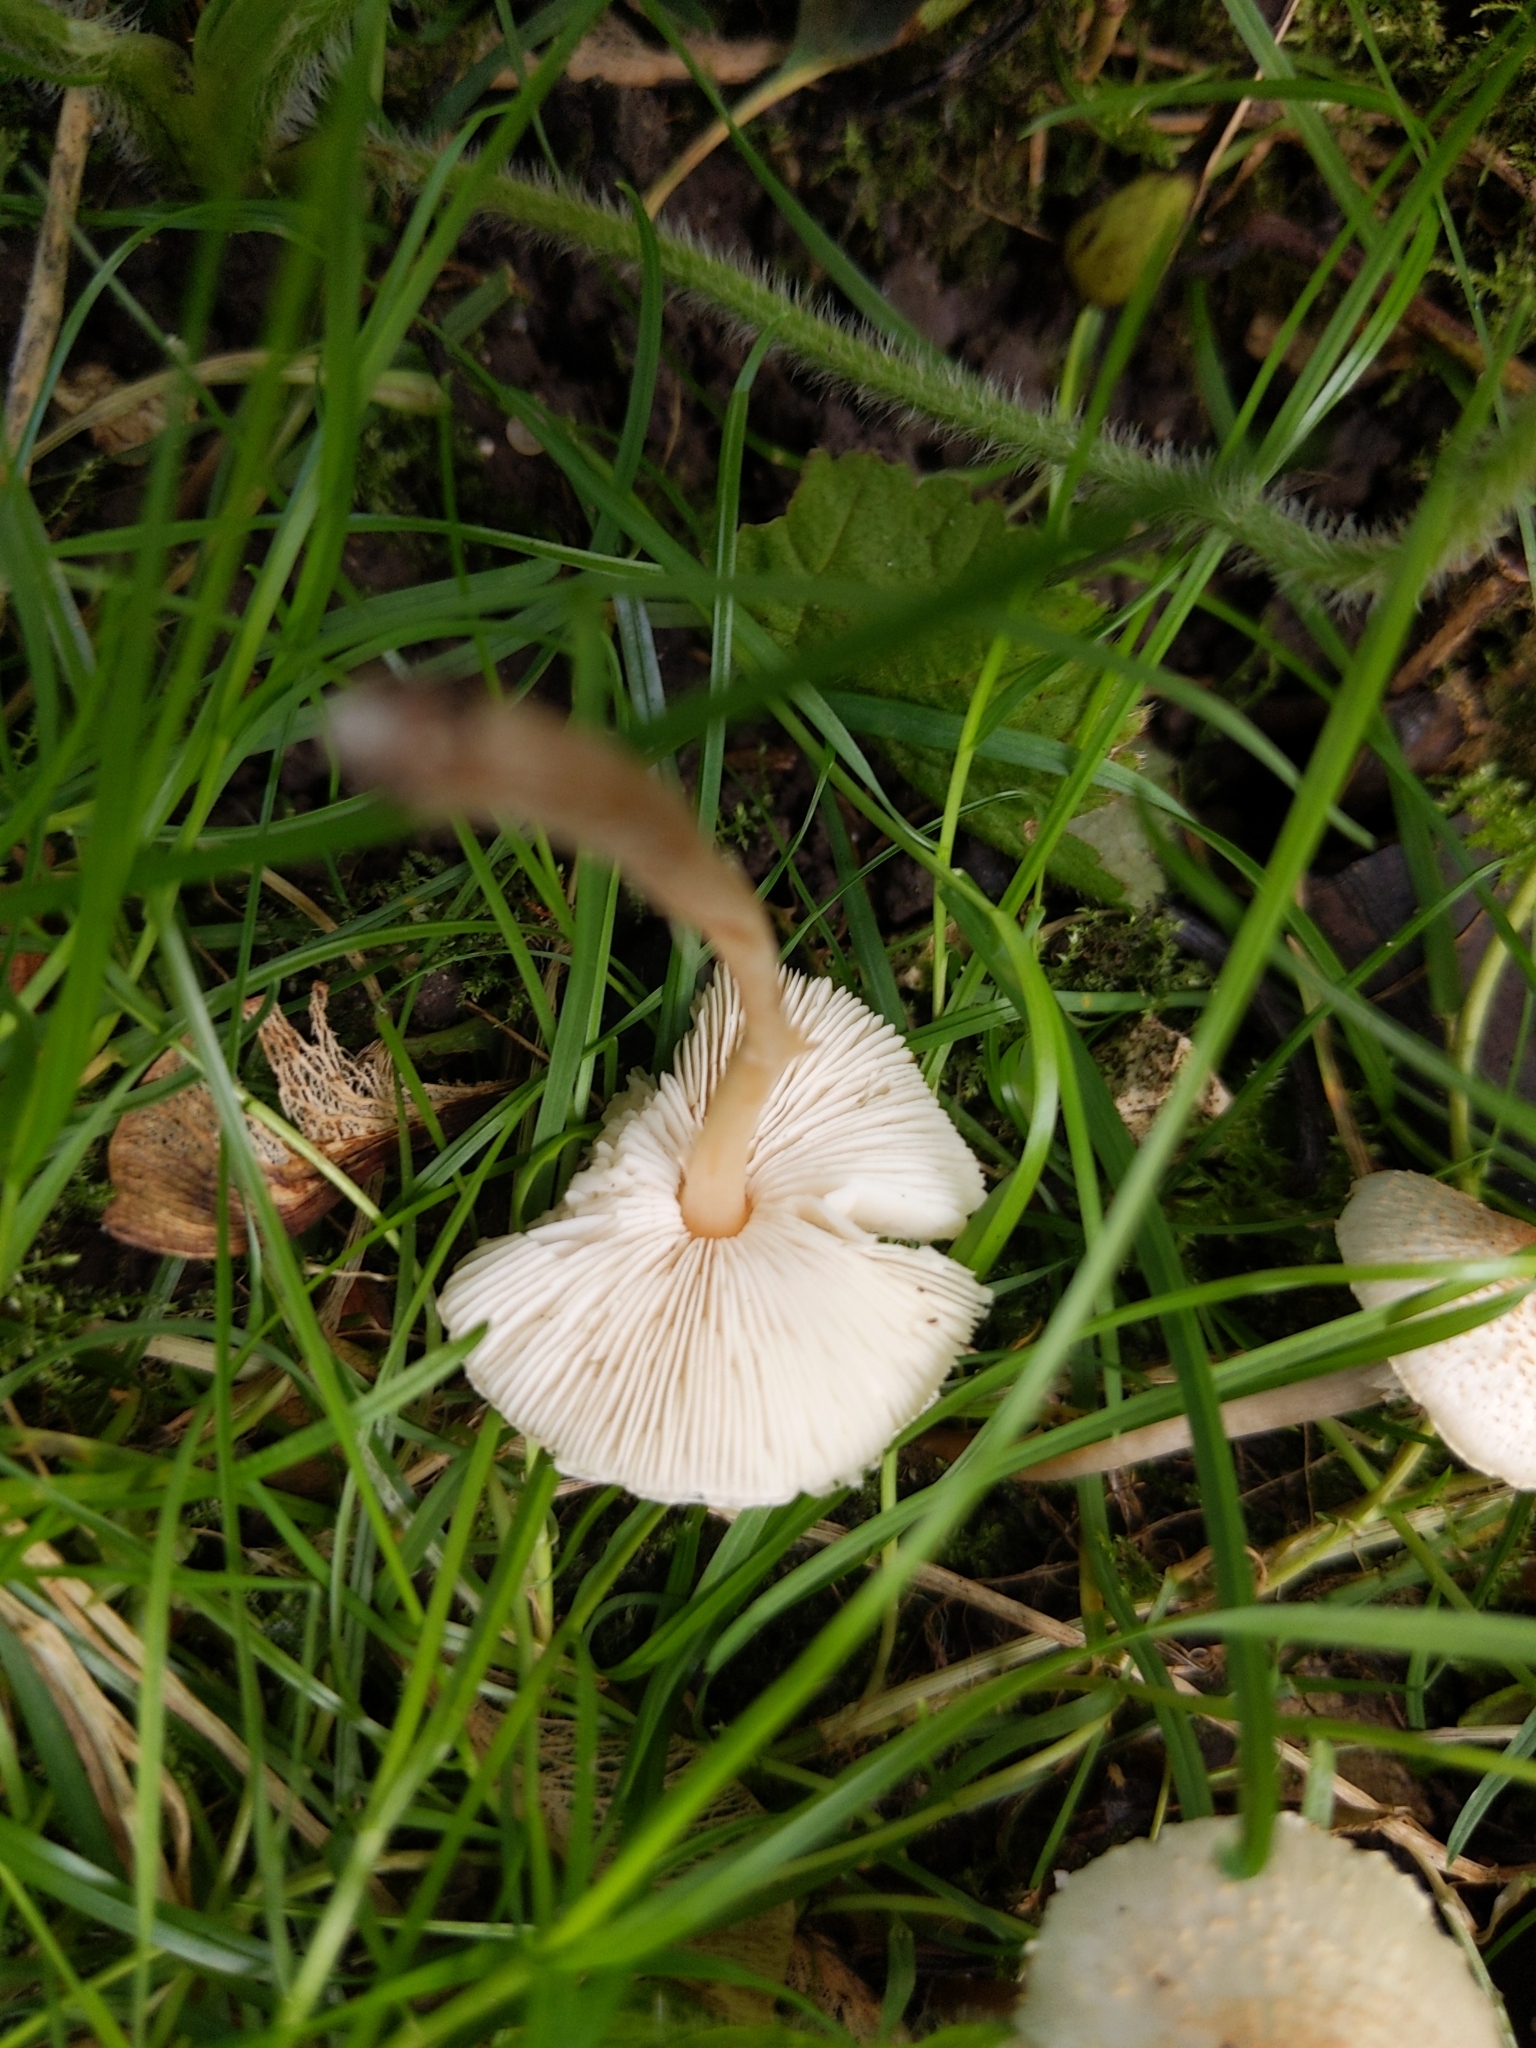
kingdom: Fungi
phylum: Basidiomycota
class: Agaricomycetes
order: Agaricales
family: Agaricaceae
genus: Lepiota
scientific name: Lepiota cristata
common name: Stinking dapperling
